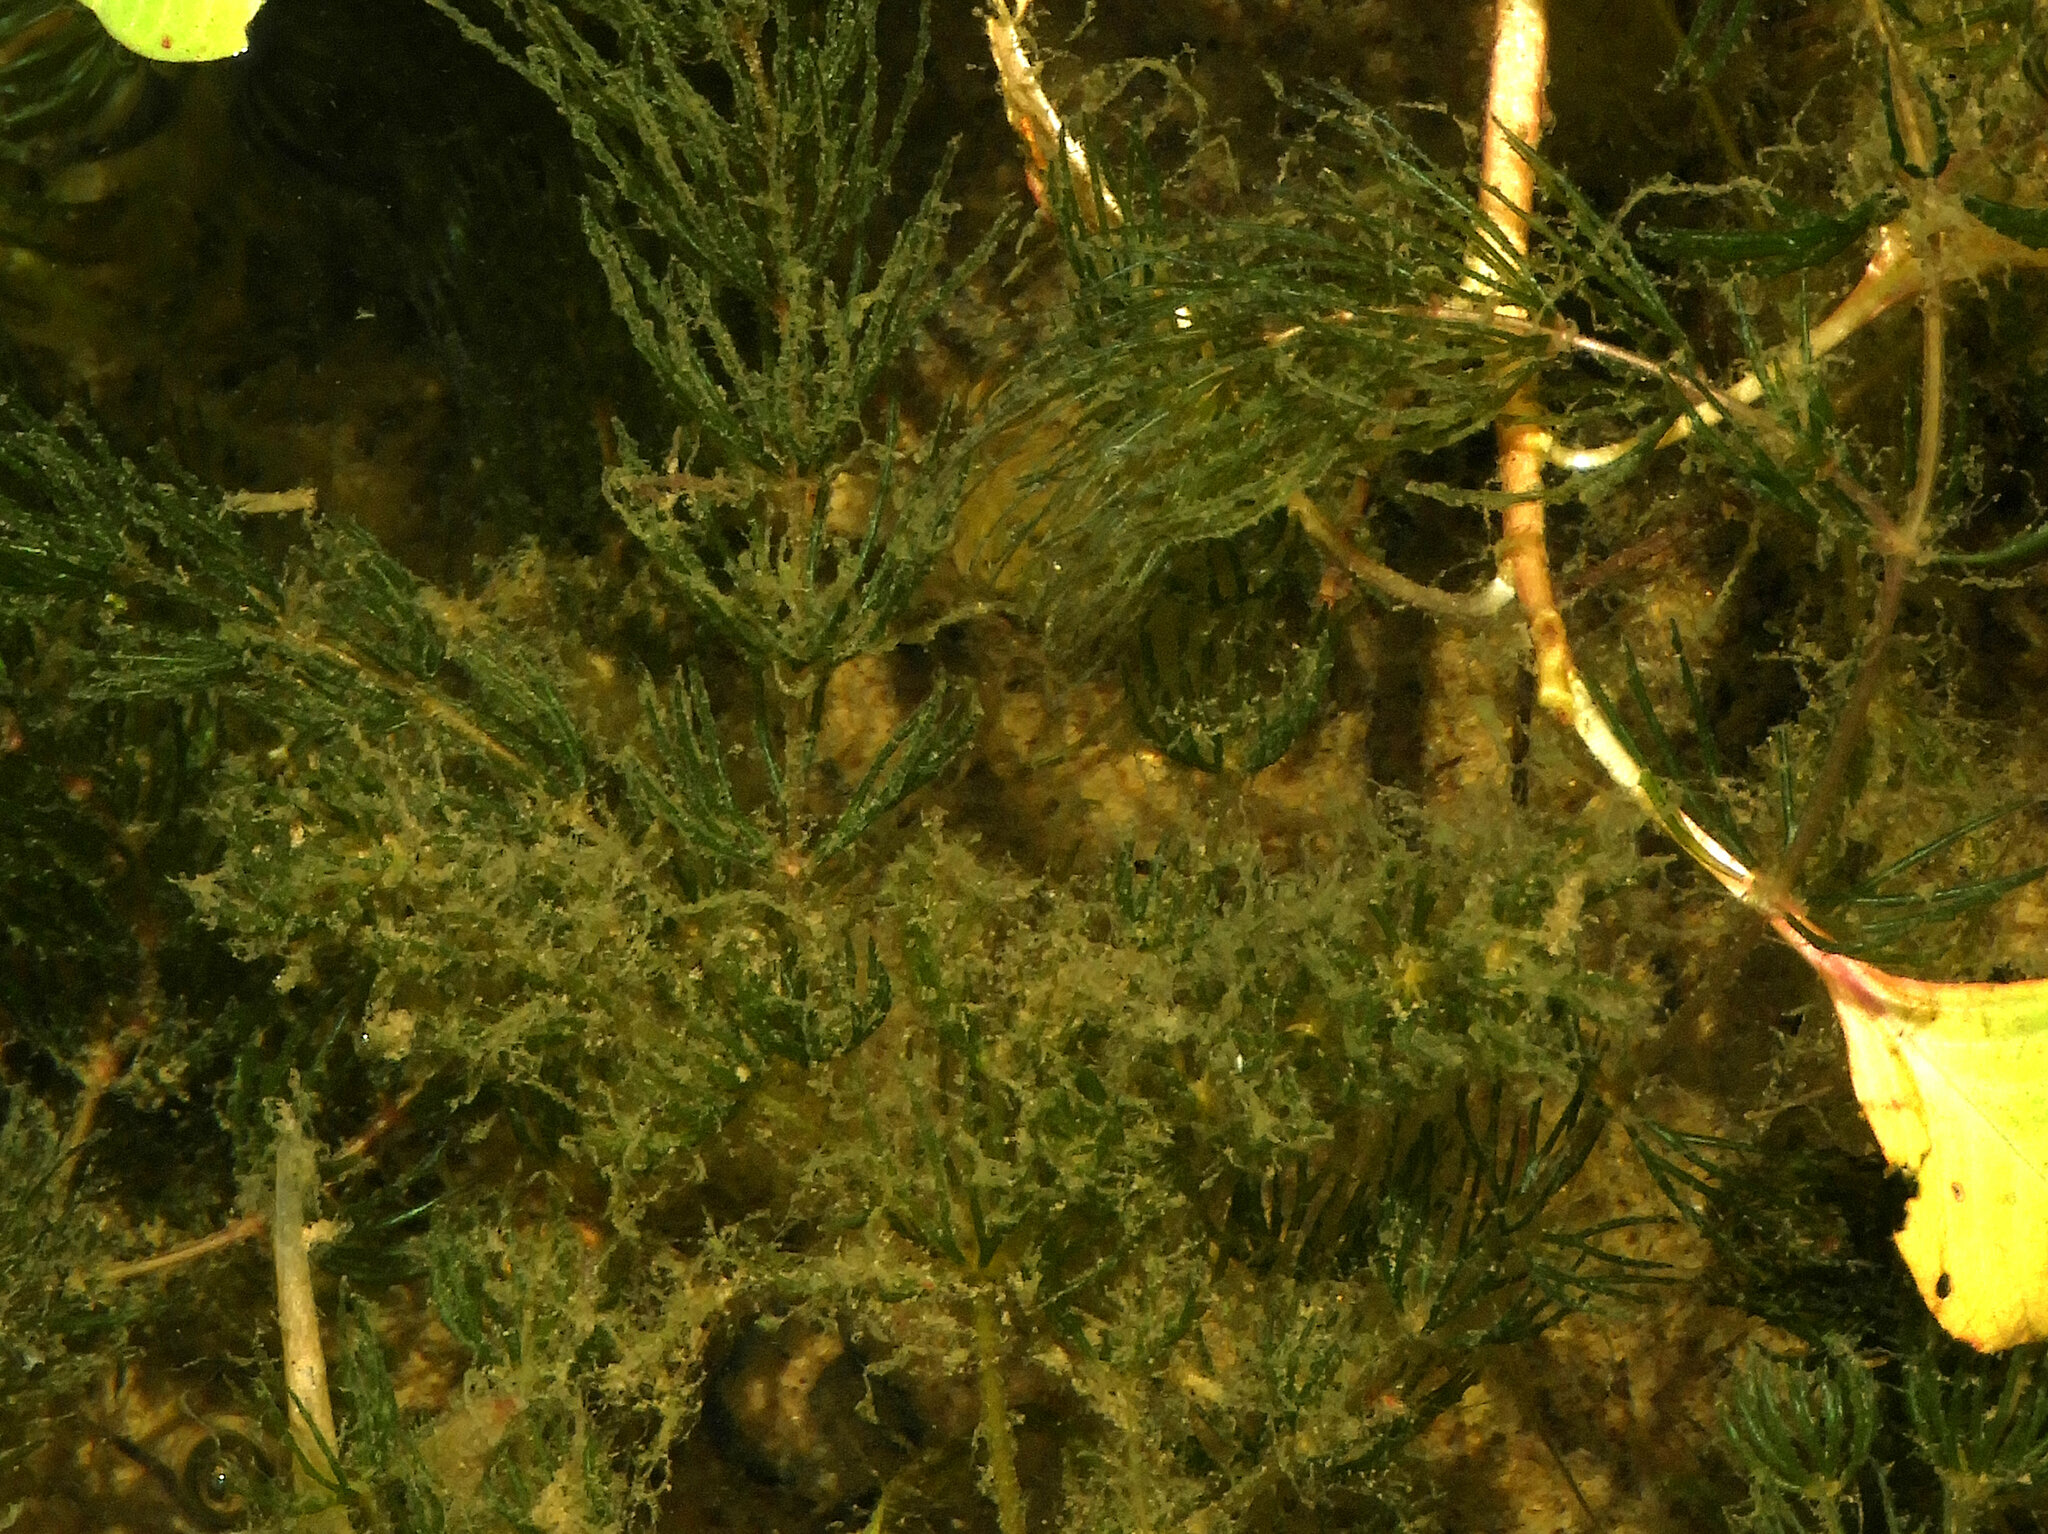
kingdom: Plantae
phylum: Tracheophyta
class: Magnoliopsida
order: Ceratophyllales
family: Ceratophyllaceae
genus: Ceratophyllum
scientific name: Ceratophyllum demersum
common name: Rigid hornwort
